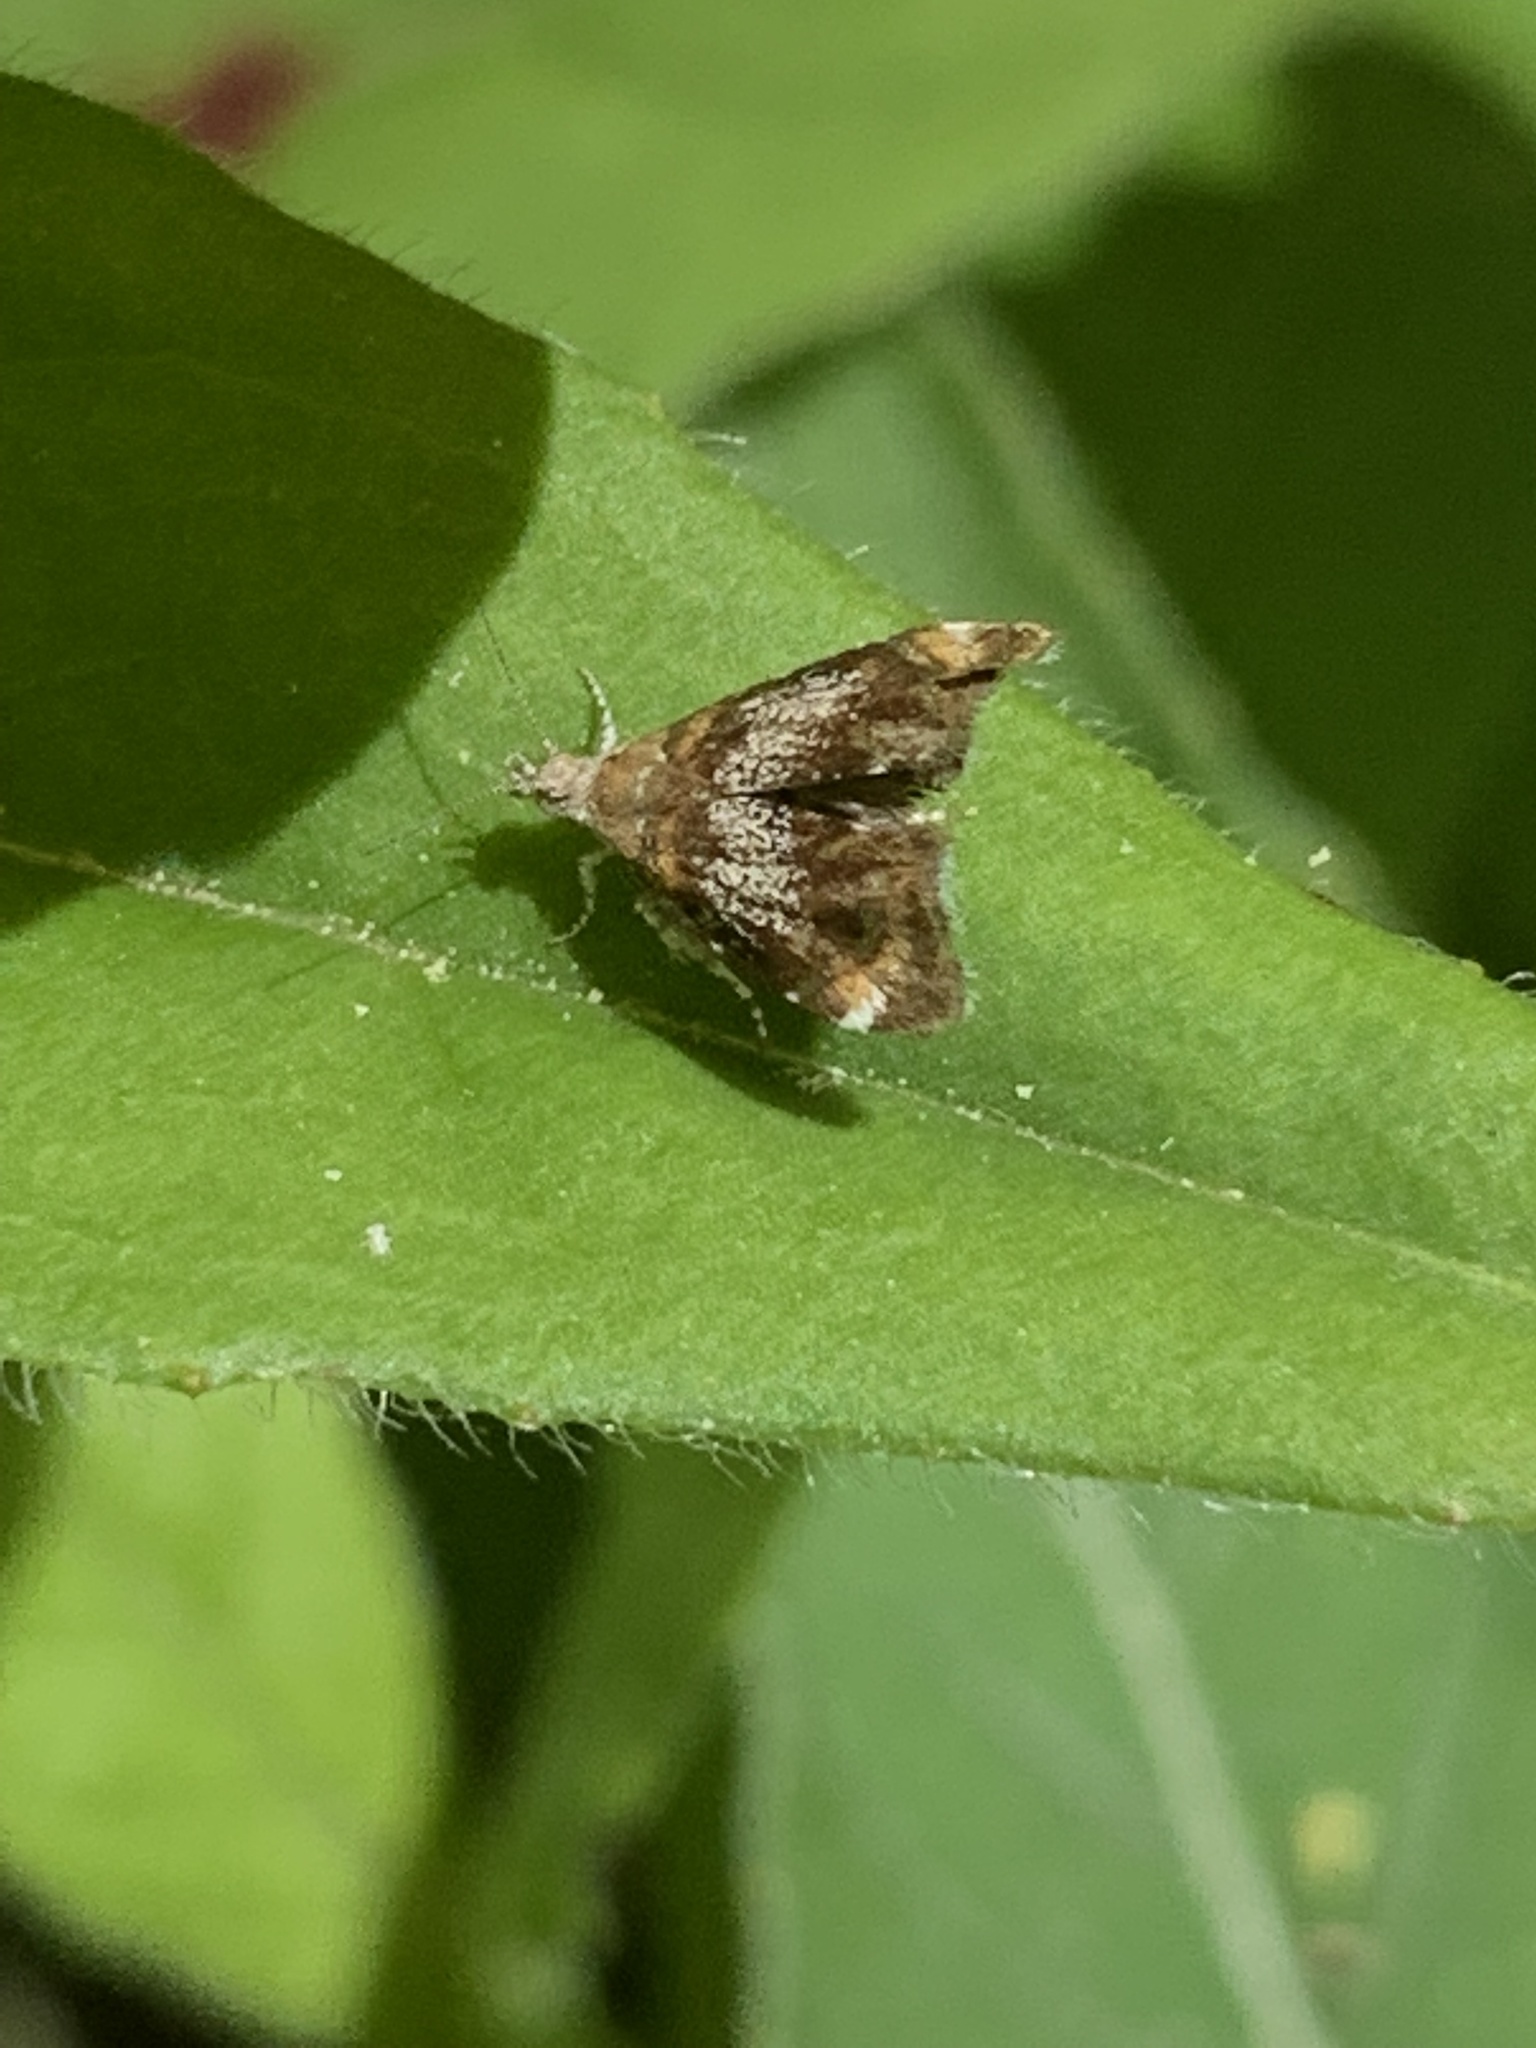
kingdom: Animalia
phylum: Arthropoda
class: Insecta
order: Lepidoptera
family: Choreutidae
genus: Prochoreutis
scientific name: Prochoreutis inflatella
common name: Skullcap skeletonizer moth
